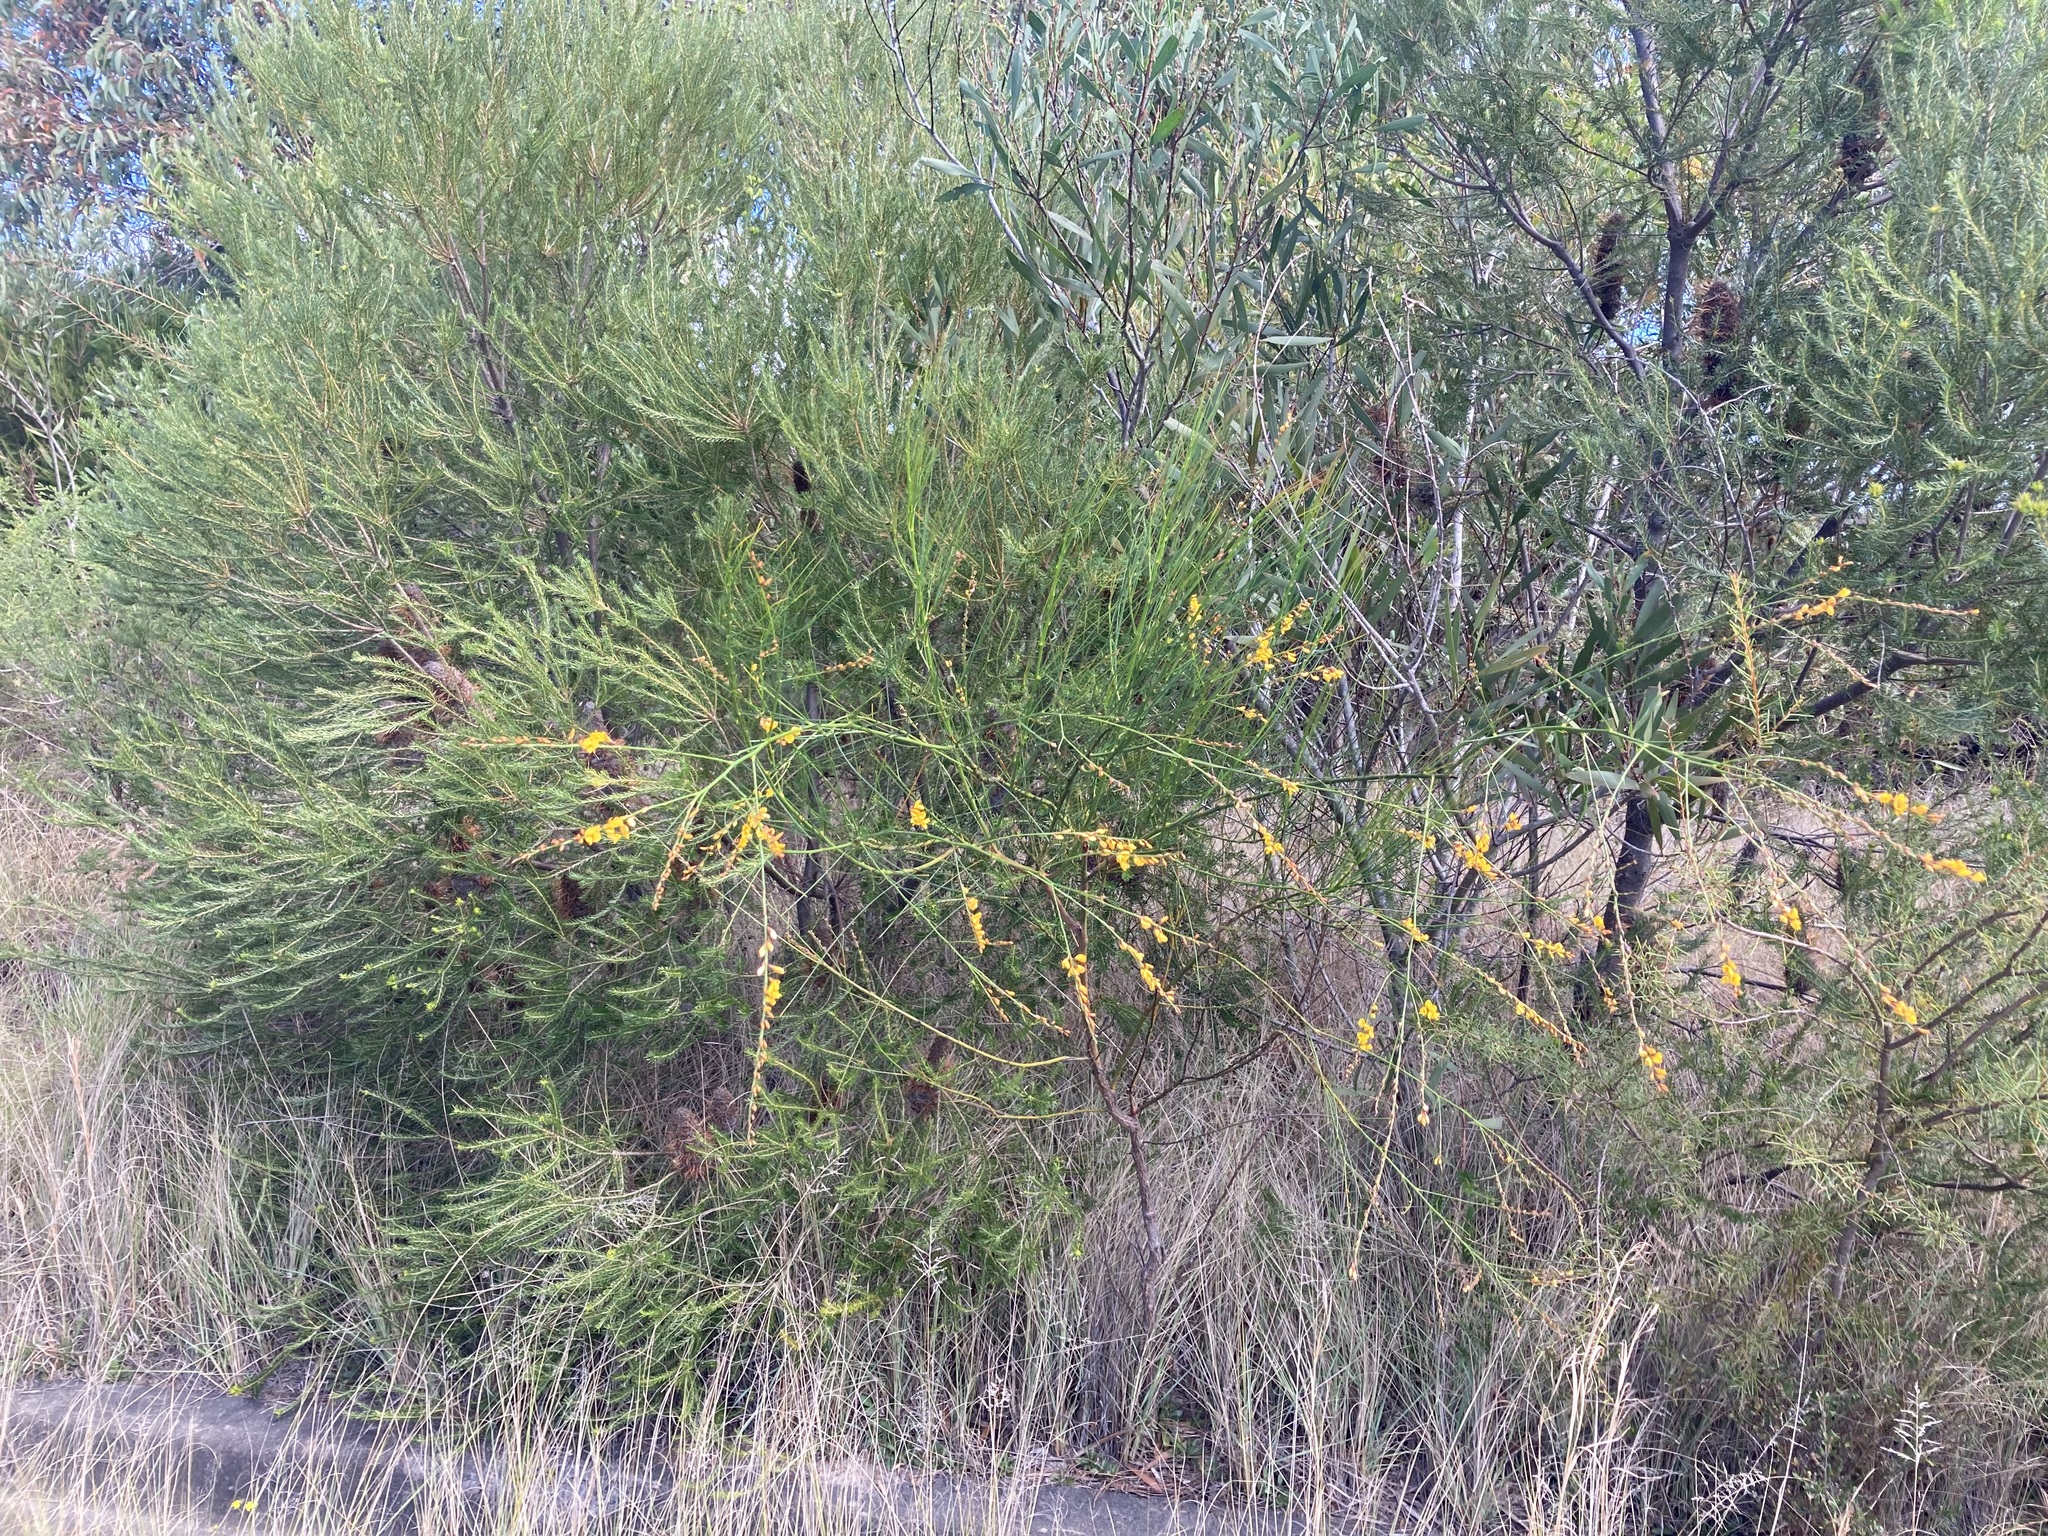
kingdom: Plantae
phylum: Tracheophyta
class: Magnoliopsida
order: Fabales
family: Fabaceae
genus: Viminaria
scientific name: Viminaria juncea
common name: Golden spray
